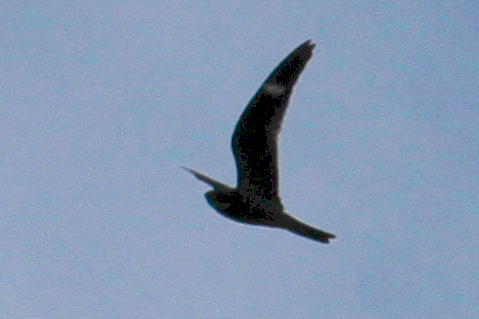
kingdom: Animalia
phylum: Chordata
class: Aves
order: Caprimulgiformes
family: Caprimulgidae
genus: Chordeiles
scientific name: Chordeiles minor
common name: Common nighthawk
